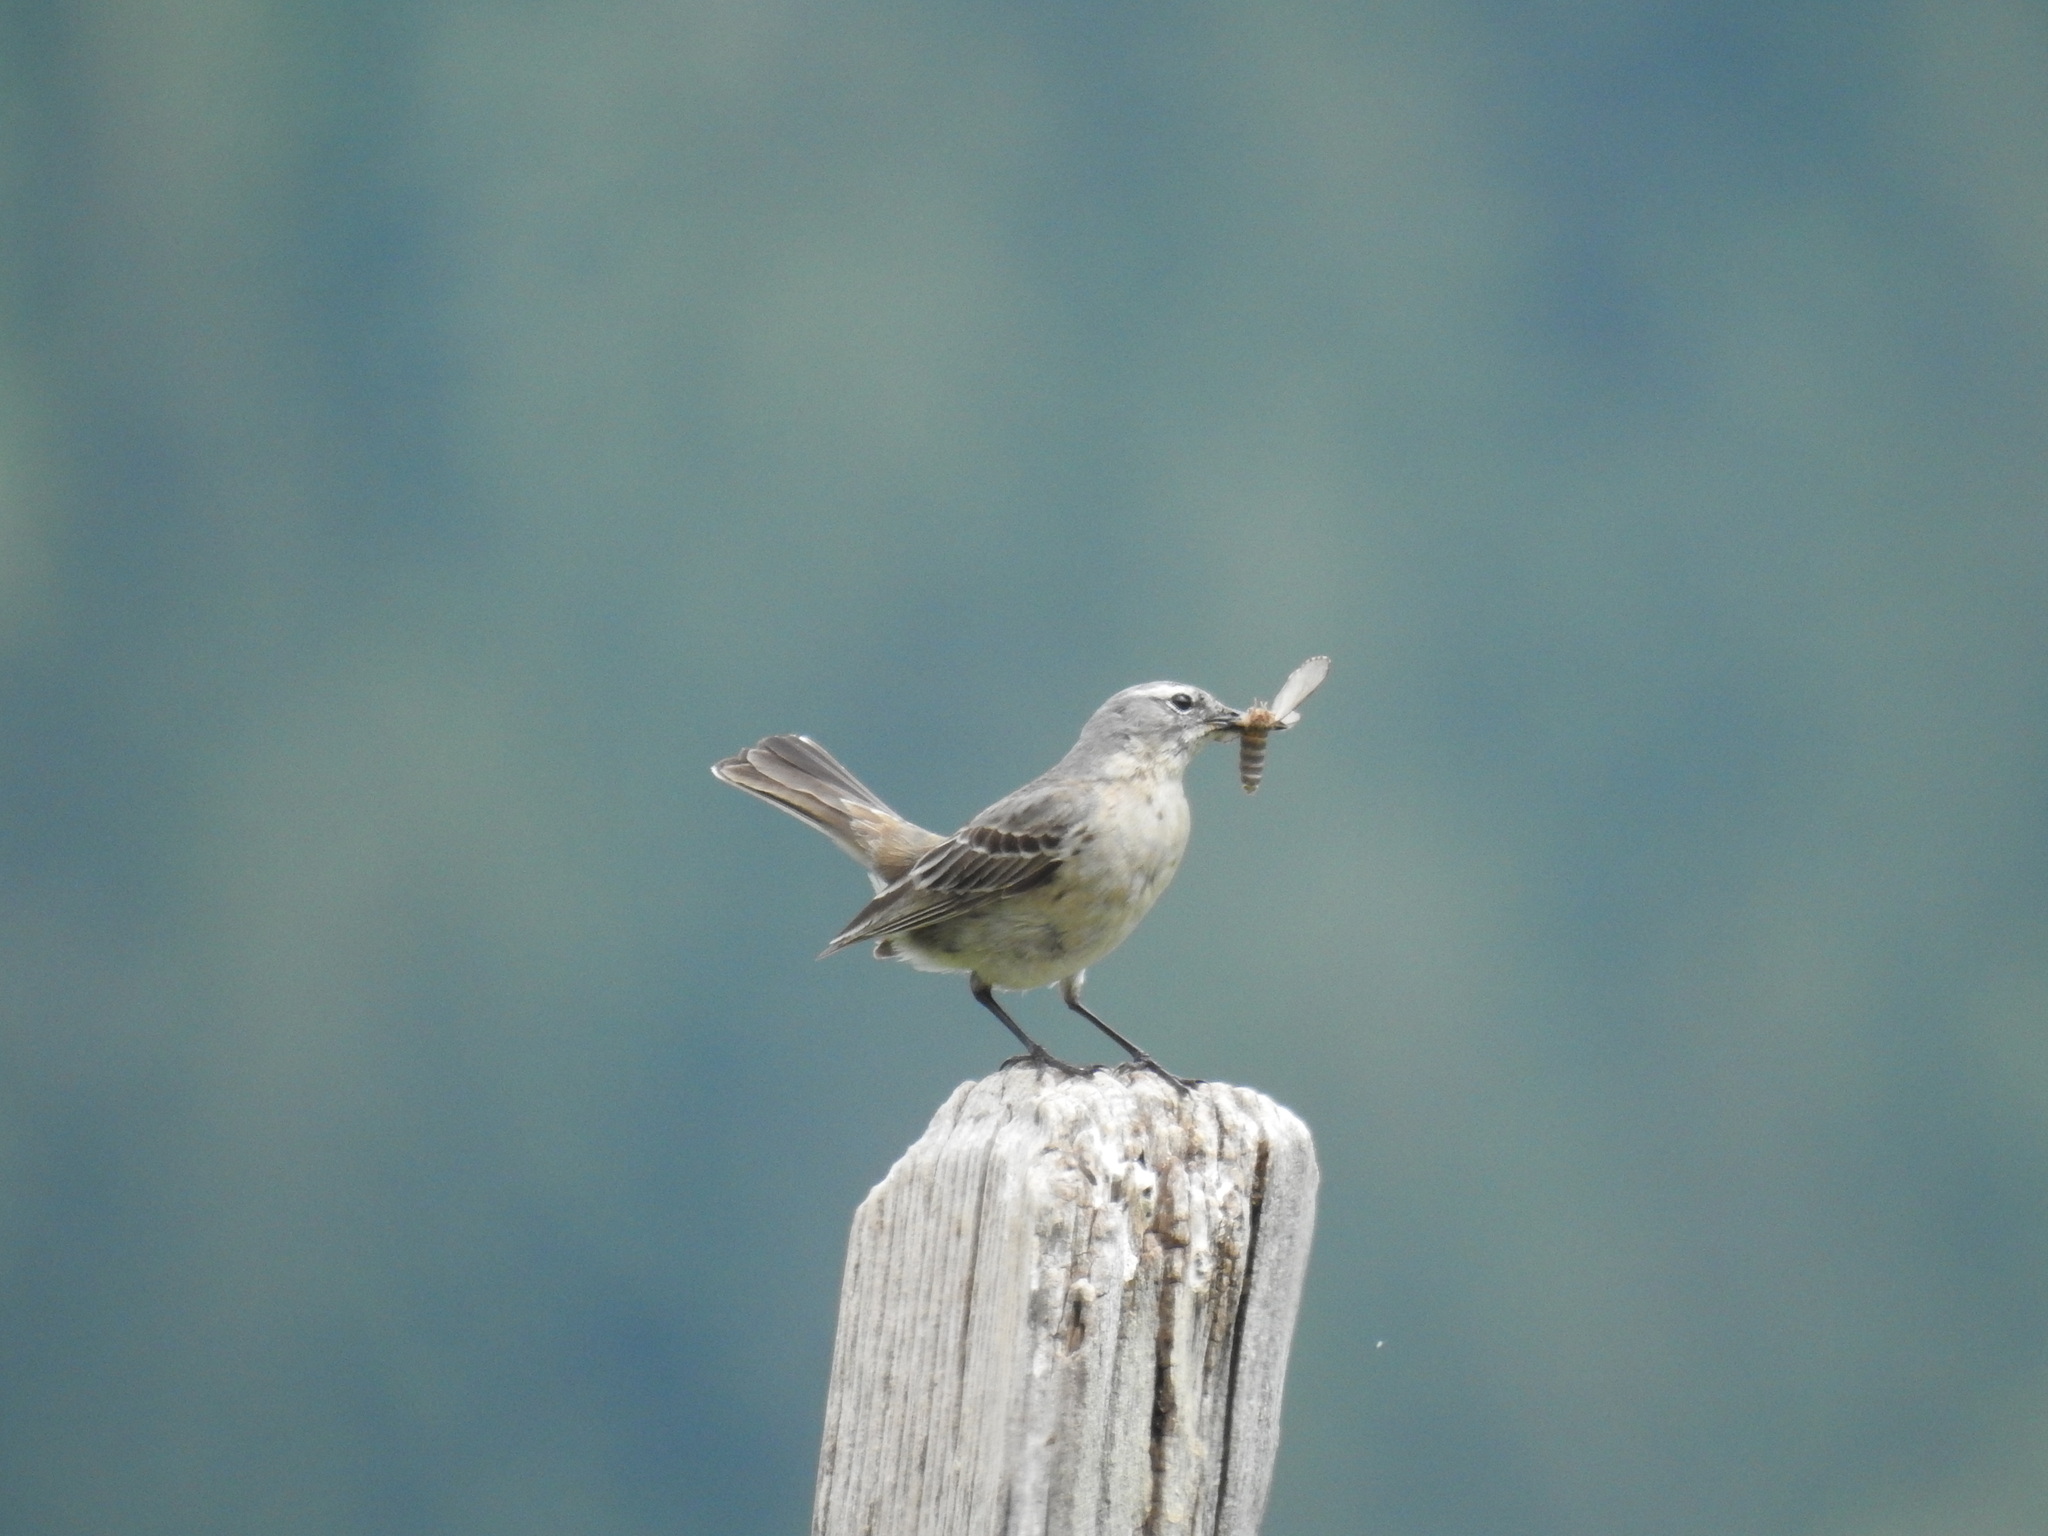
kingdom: Animalia
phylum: Chordata
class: Aves
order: Passeriformes
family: Motacillidae
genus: Anthus
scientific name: Anthus spinoletta
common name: Water pipit
